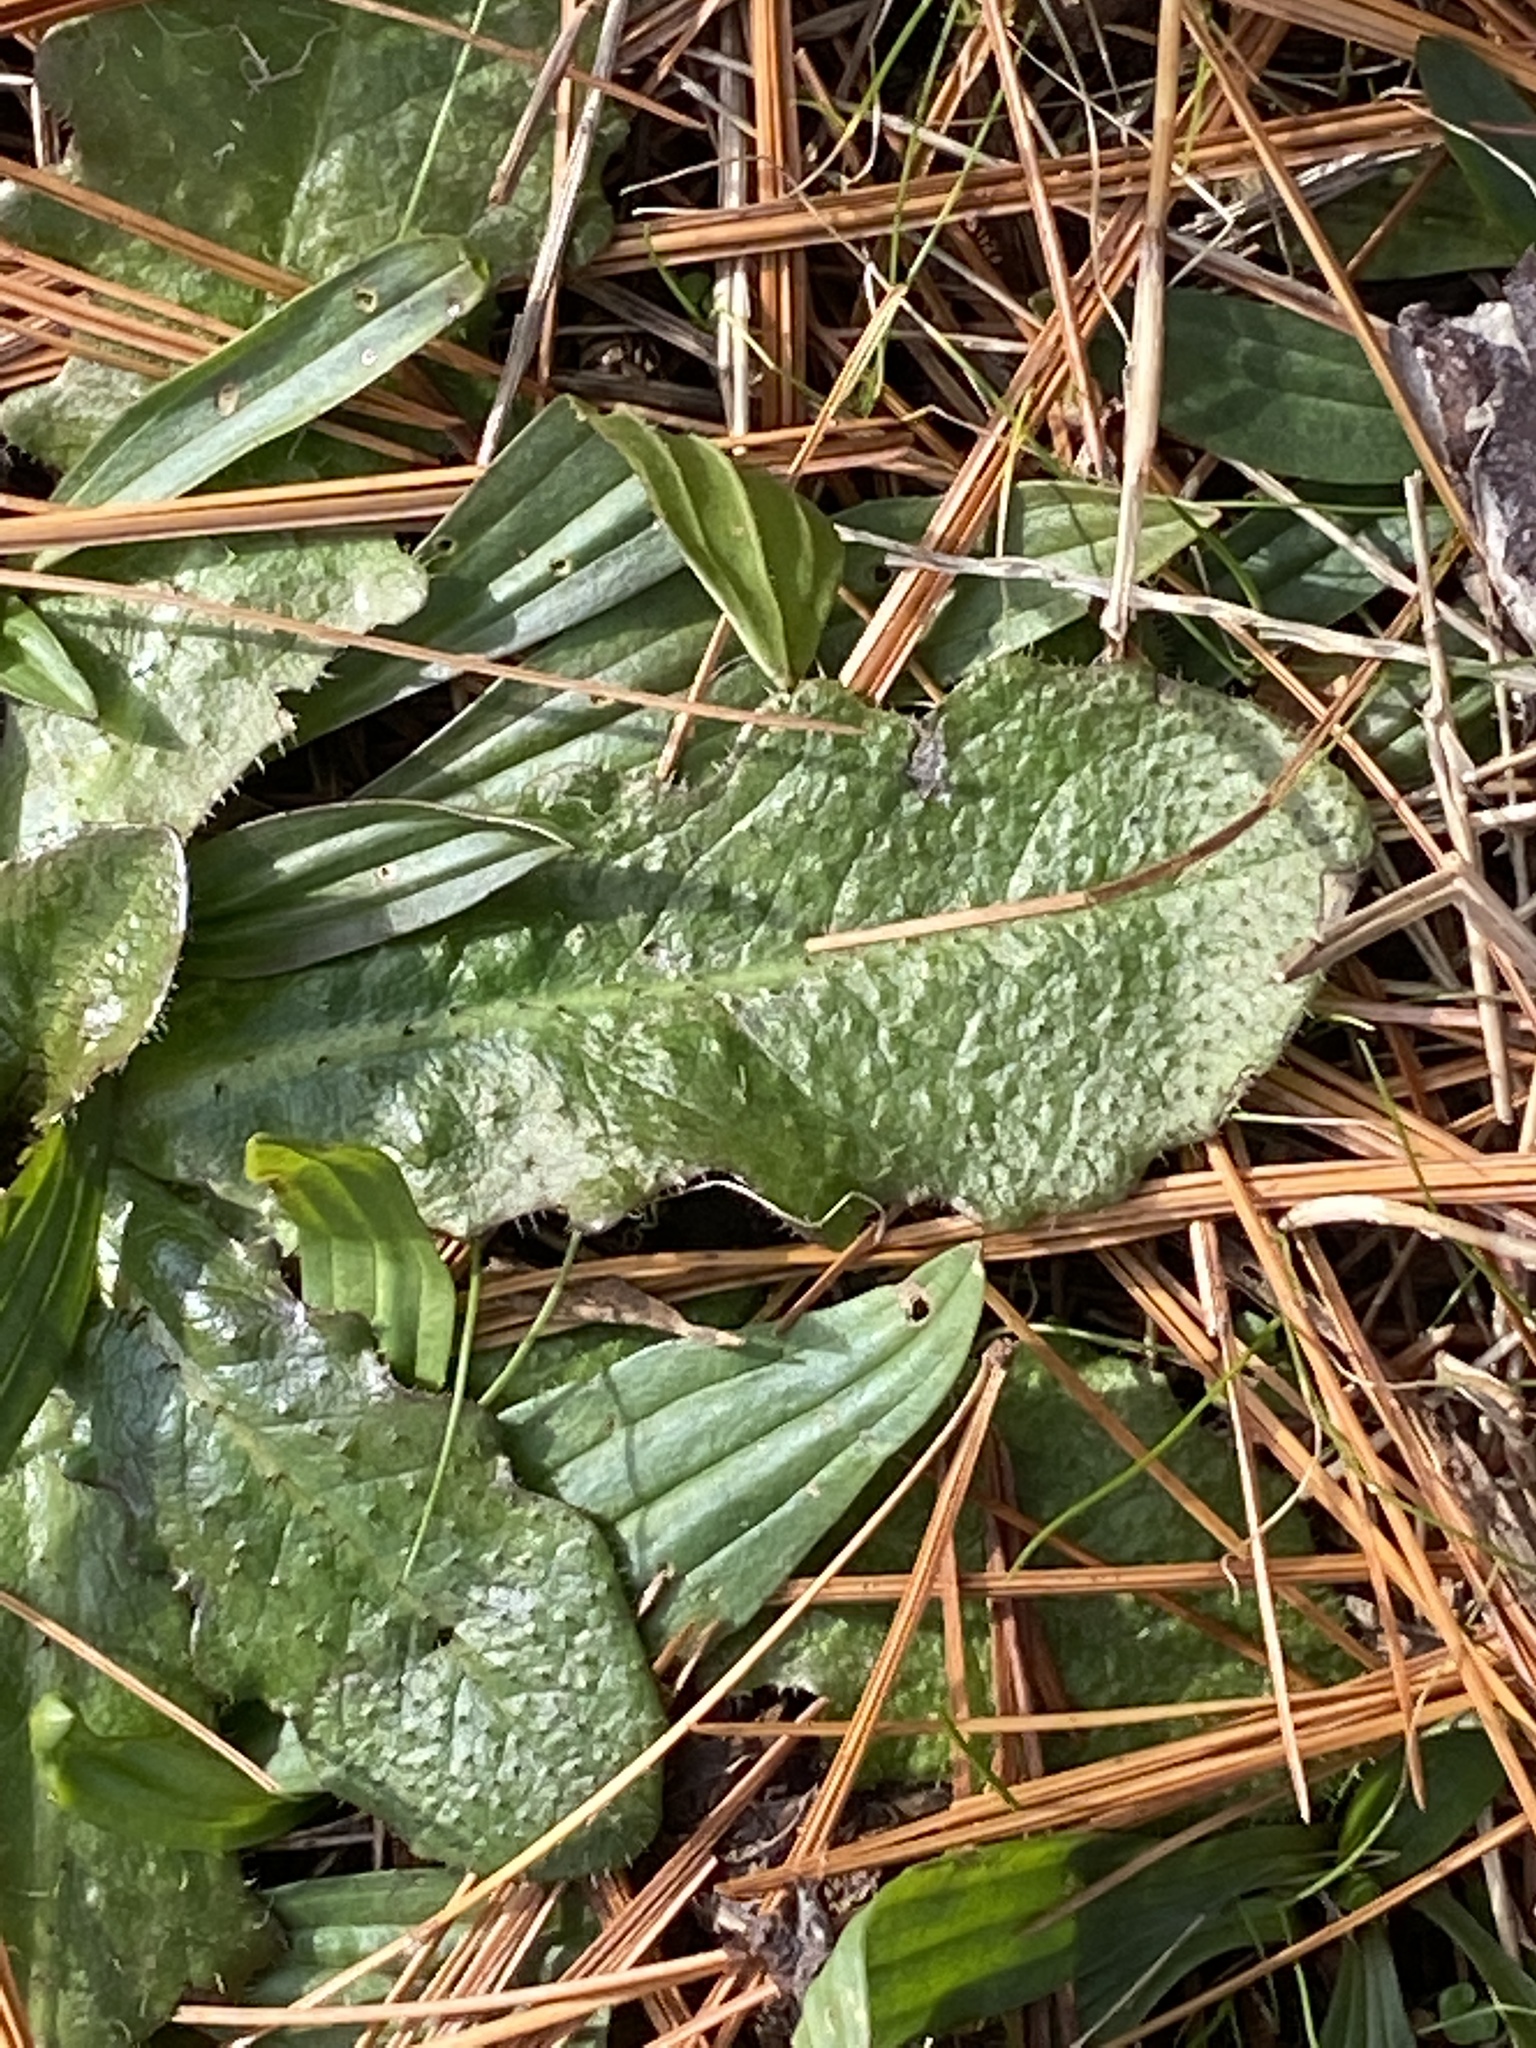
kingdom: Plantae
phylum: Tracheophyta
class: Magnoliopsida
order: Asterales
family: Asteraceae
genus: Hypochaeris
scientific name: Hypochaeris radicata
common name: Flatweed
